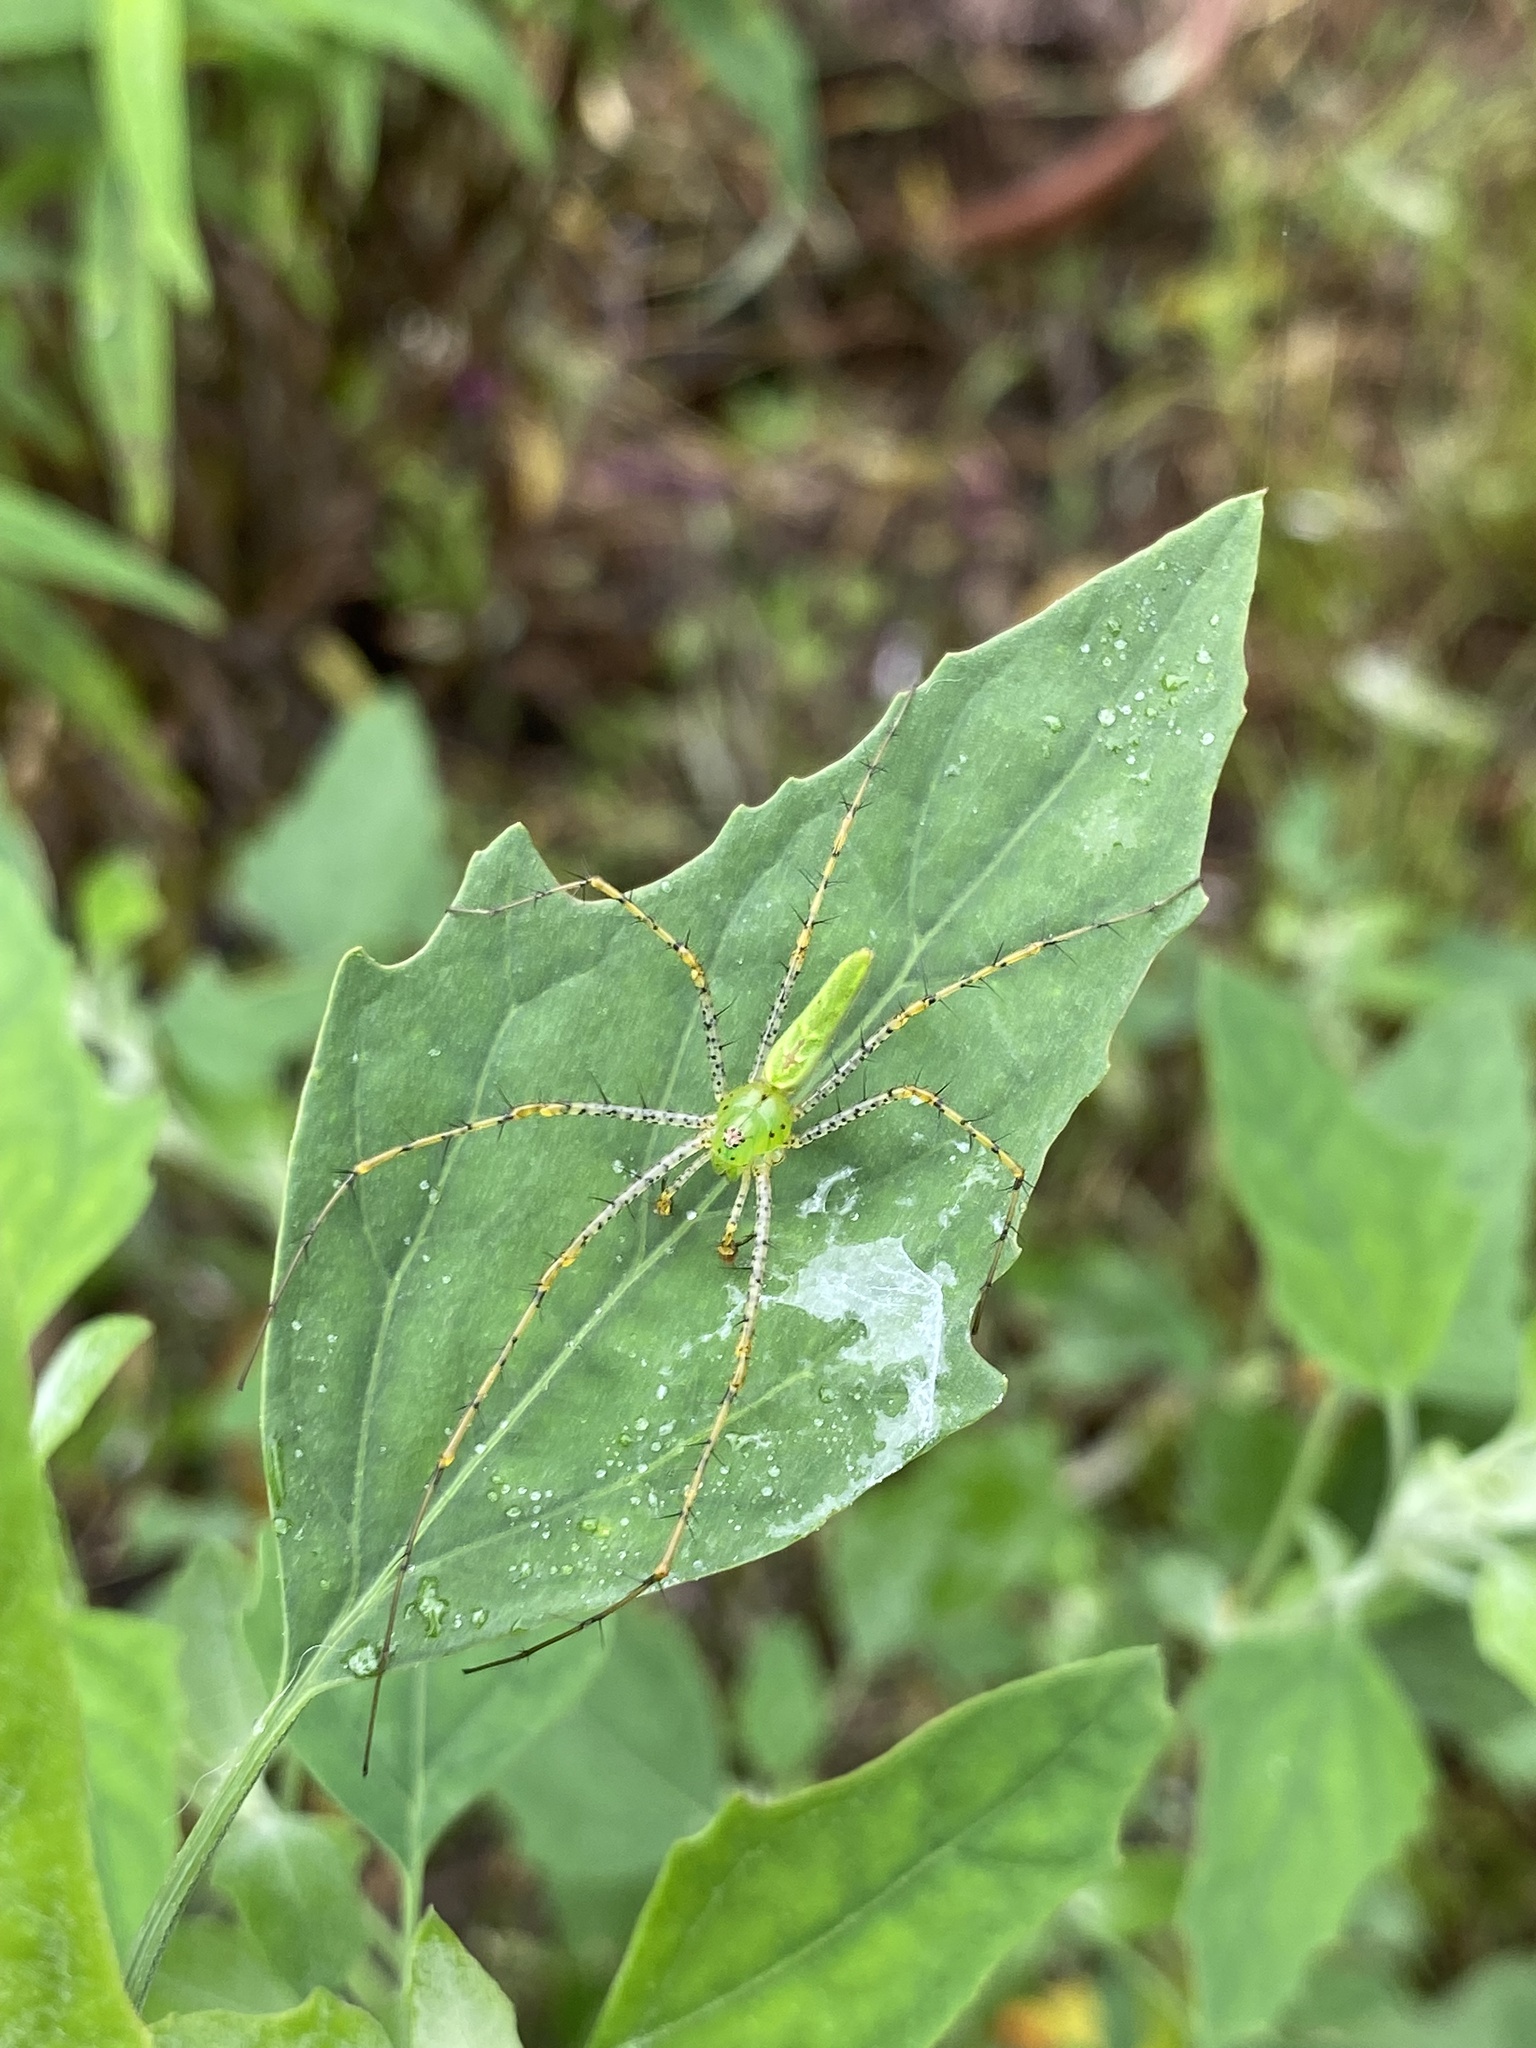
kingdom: Animalia
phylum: Arthropoda
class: Arachnida
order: Araneae
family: Oxyopidae
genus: Peucetia
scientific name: Peucetia viridans
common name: Lynx spiders
